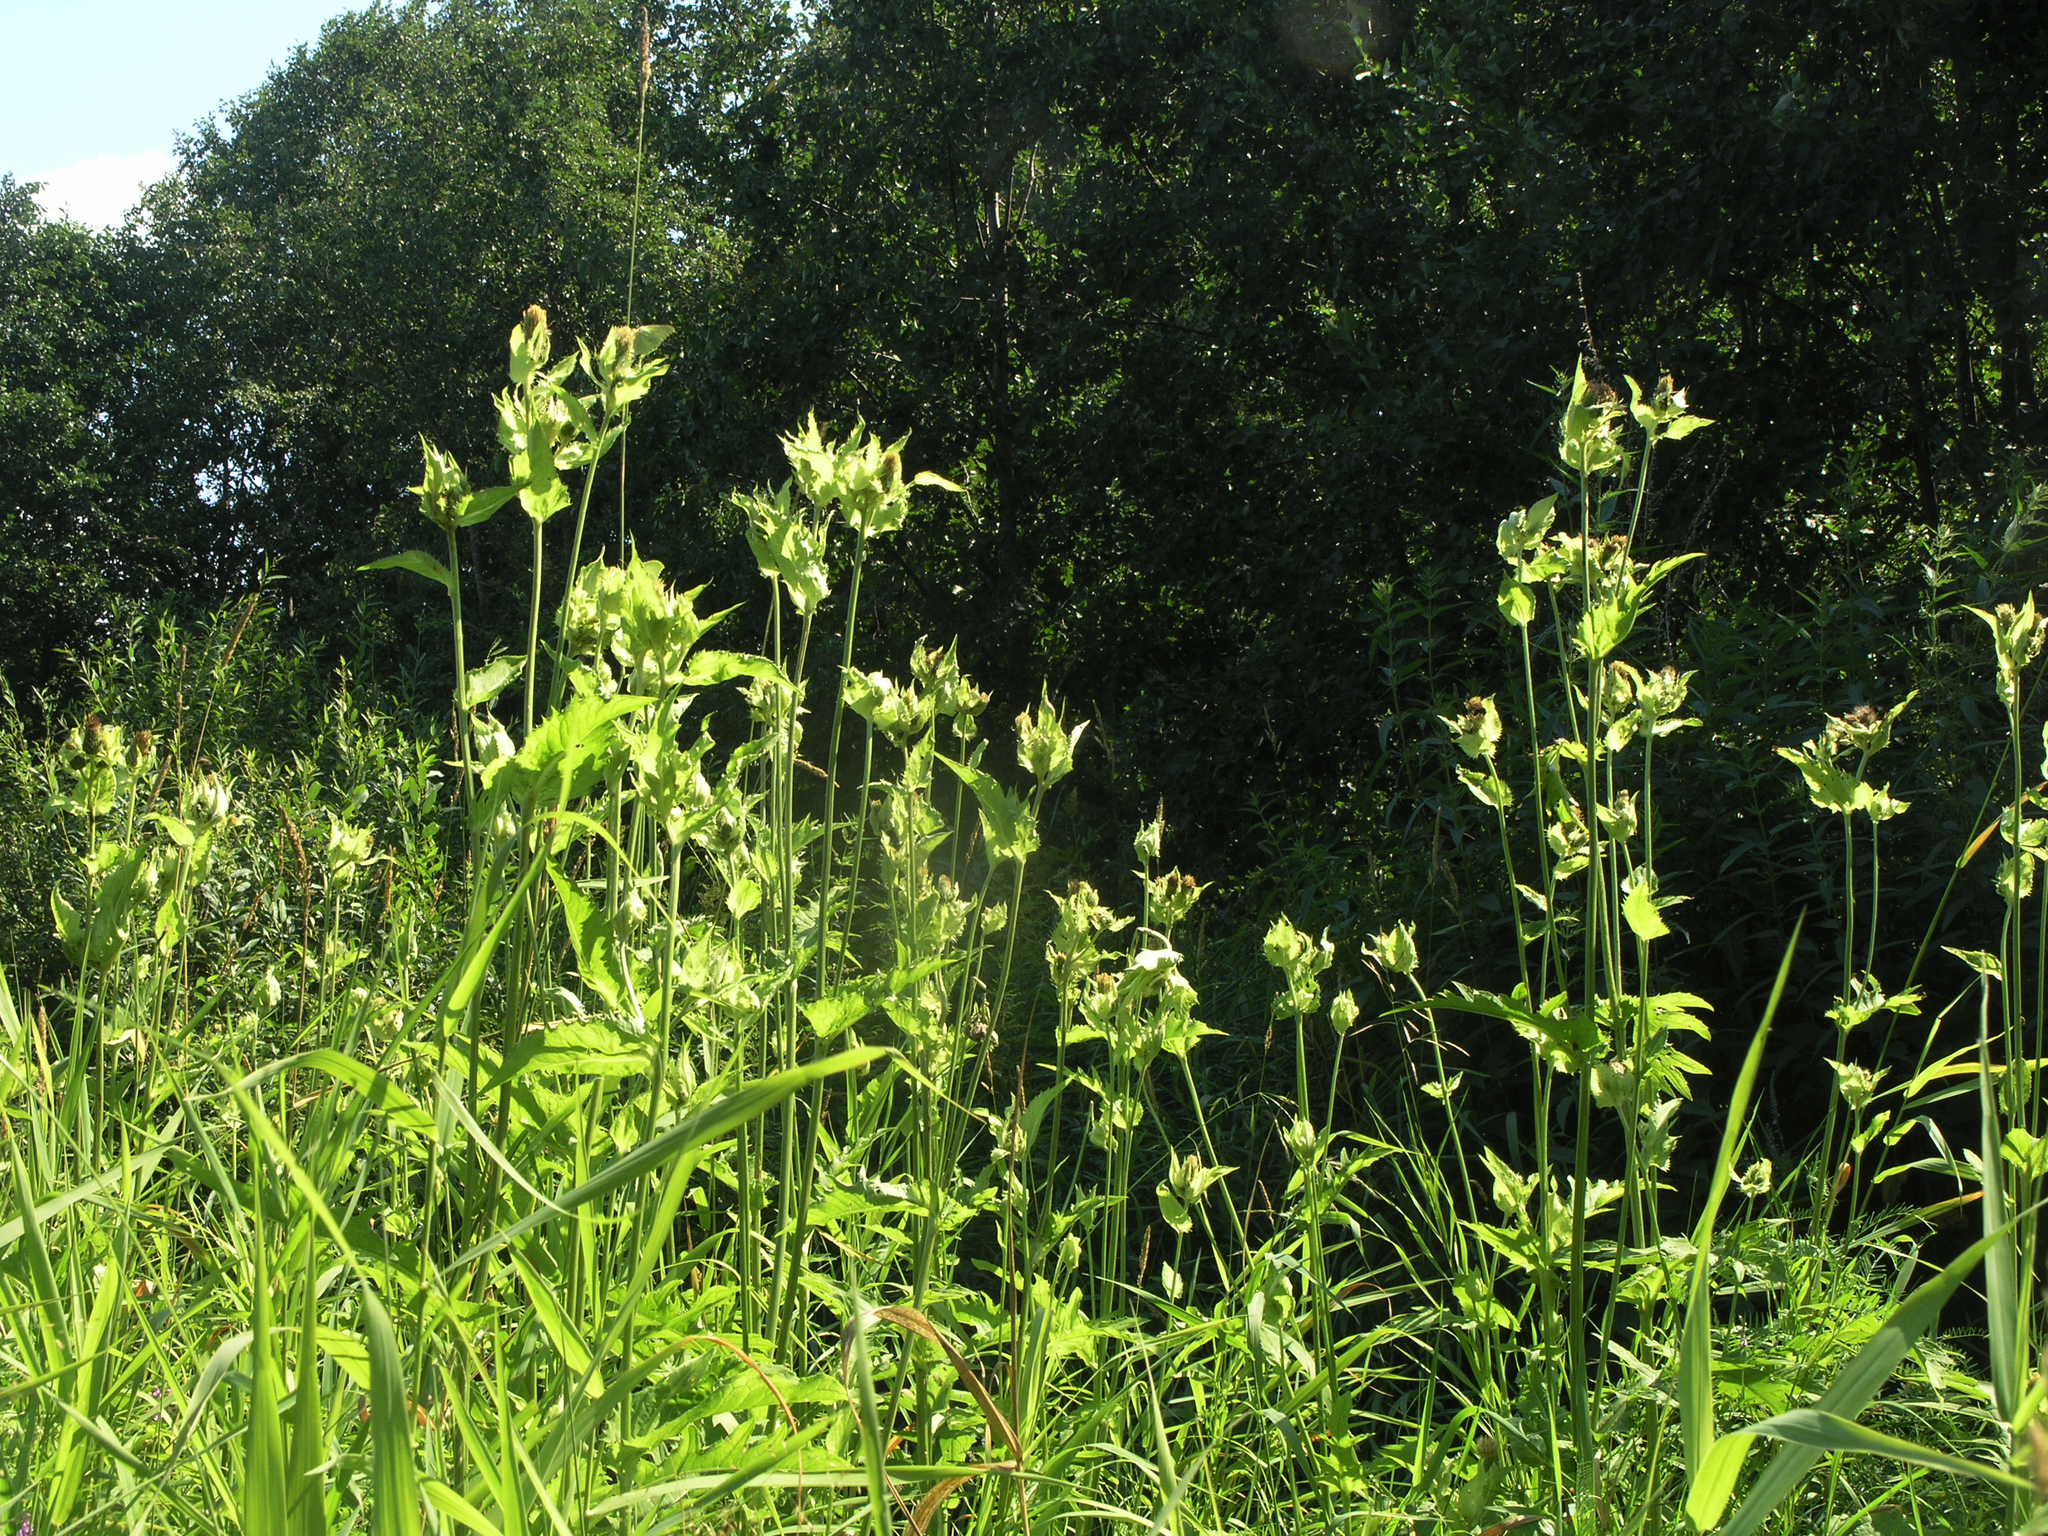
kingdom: Plantae
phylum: Tracheophyta
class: Magnoliopsida
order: Asterales
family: Asteraceae
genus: Cirsium
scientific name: Cirsium oleraceum
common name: Cabbage thistle
